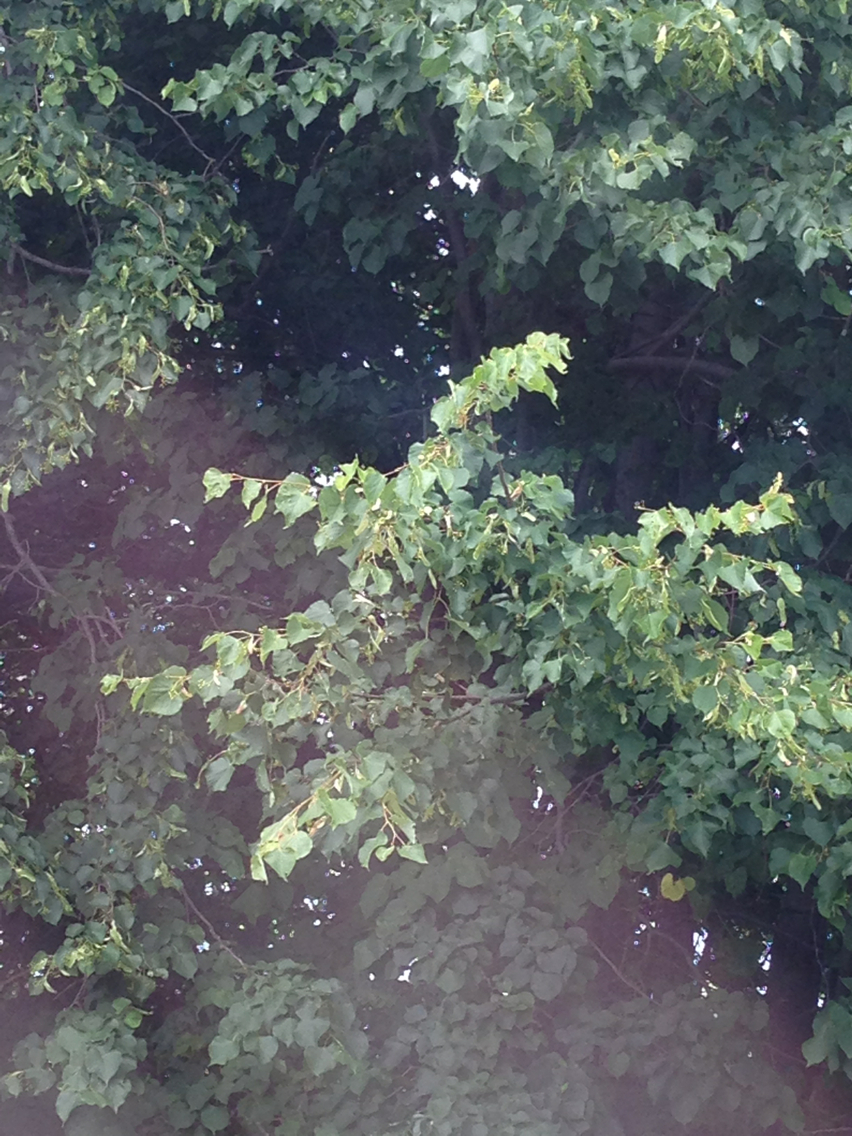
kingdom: Plantae
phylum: Tracheophyta
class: Magnoliopsida
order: Malvales
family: Malvaceae
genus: Tilia
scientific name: Tilia americana
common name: Basswood
